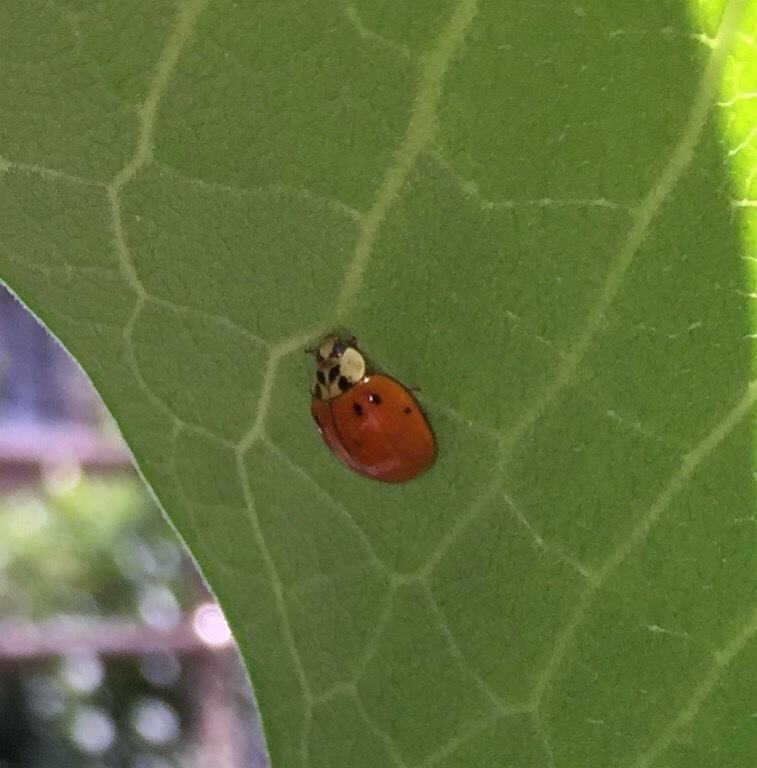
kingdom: Animalia
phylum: Arthropoda
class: Insecta
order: Coleoptera
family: Coccinellidae
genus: Harmonia
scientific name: Harmonia axyridis
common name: Harlequin ladybird
